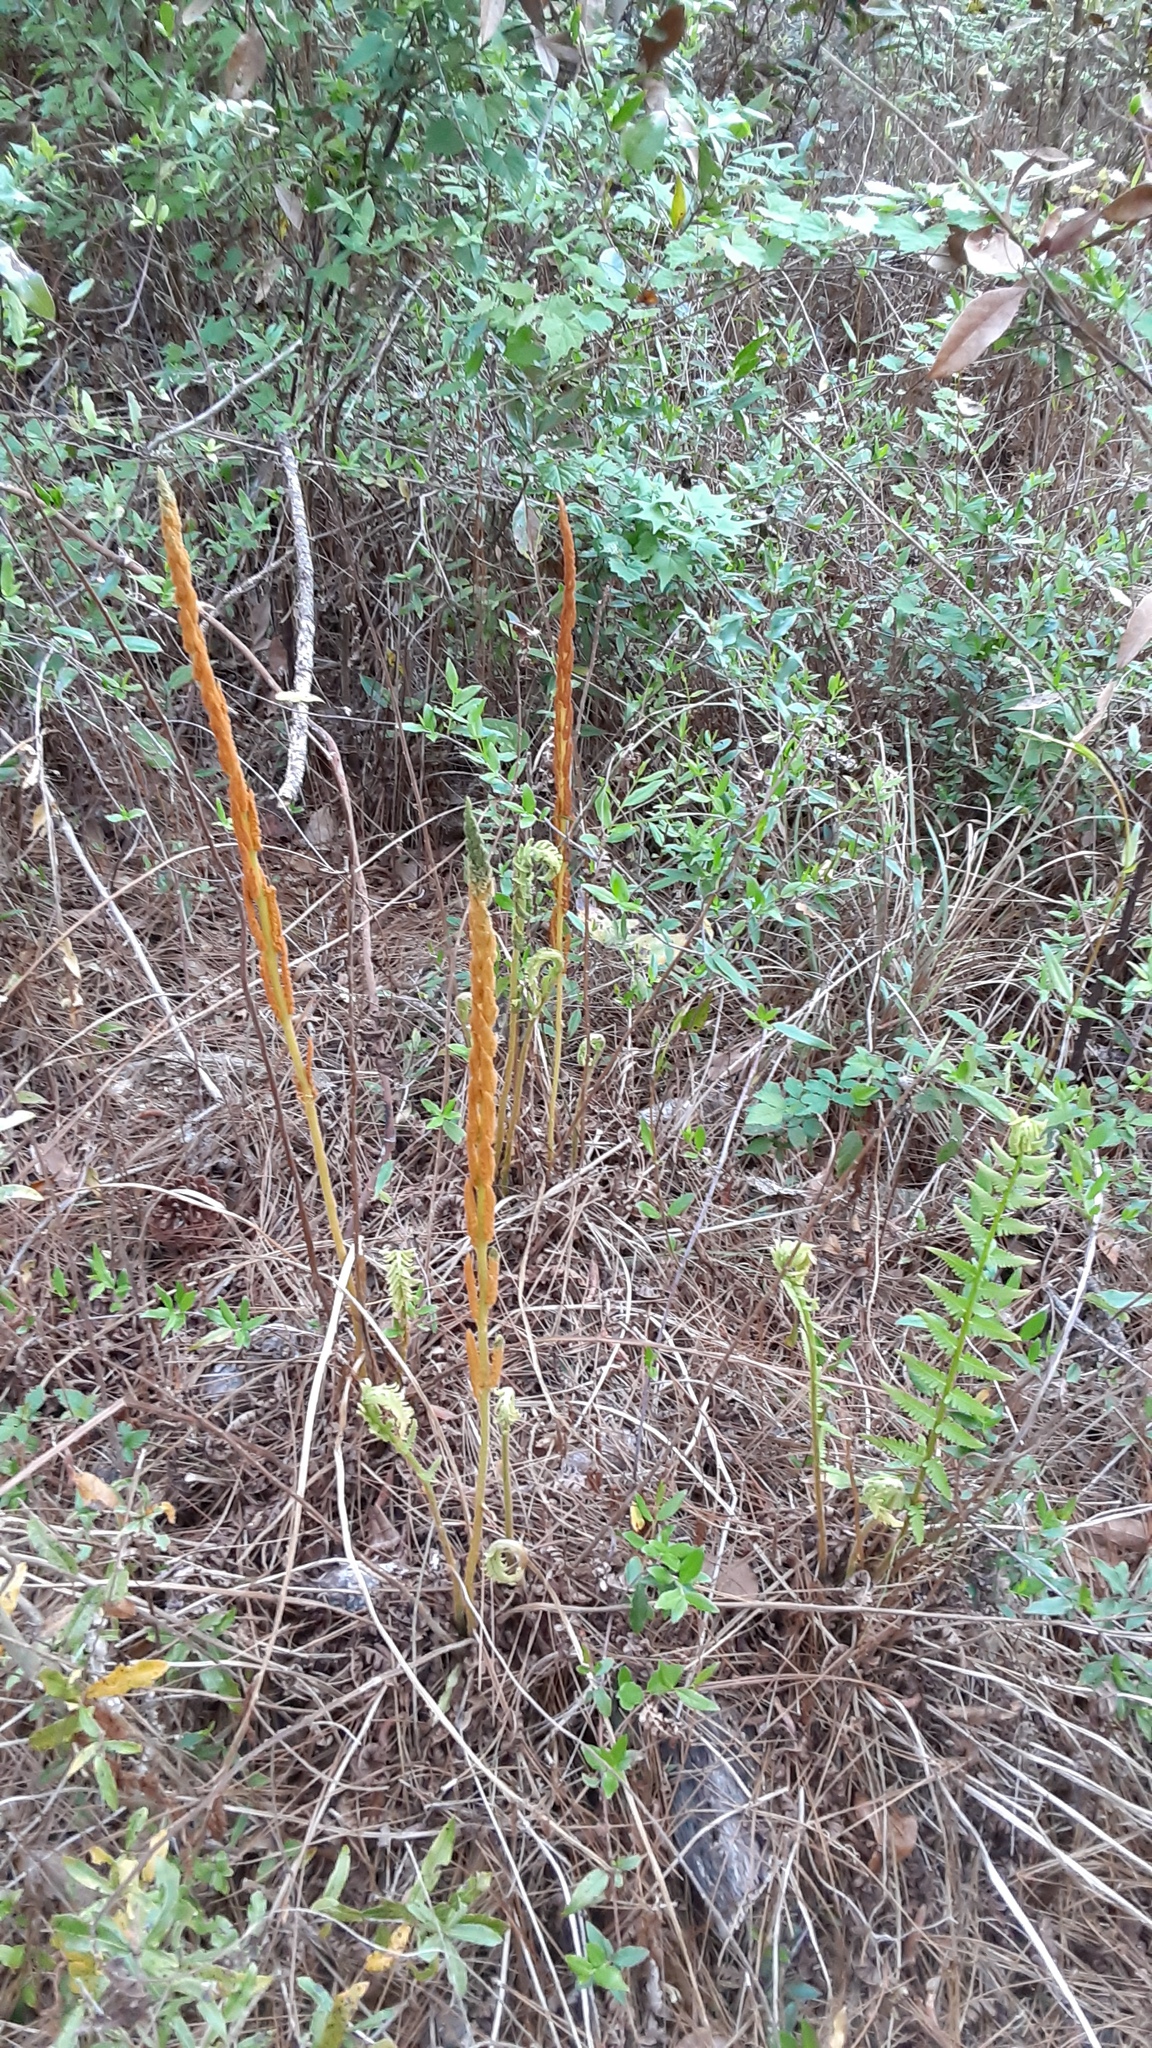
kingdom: Plantae
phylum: Tracheophyta
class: Polypodiopsida
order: Osmundales
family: Osmundaceae
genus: Osmundastrum
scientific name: Osmundastrum cinnamomeum
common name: Cinnamon fern
